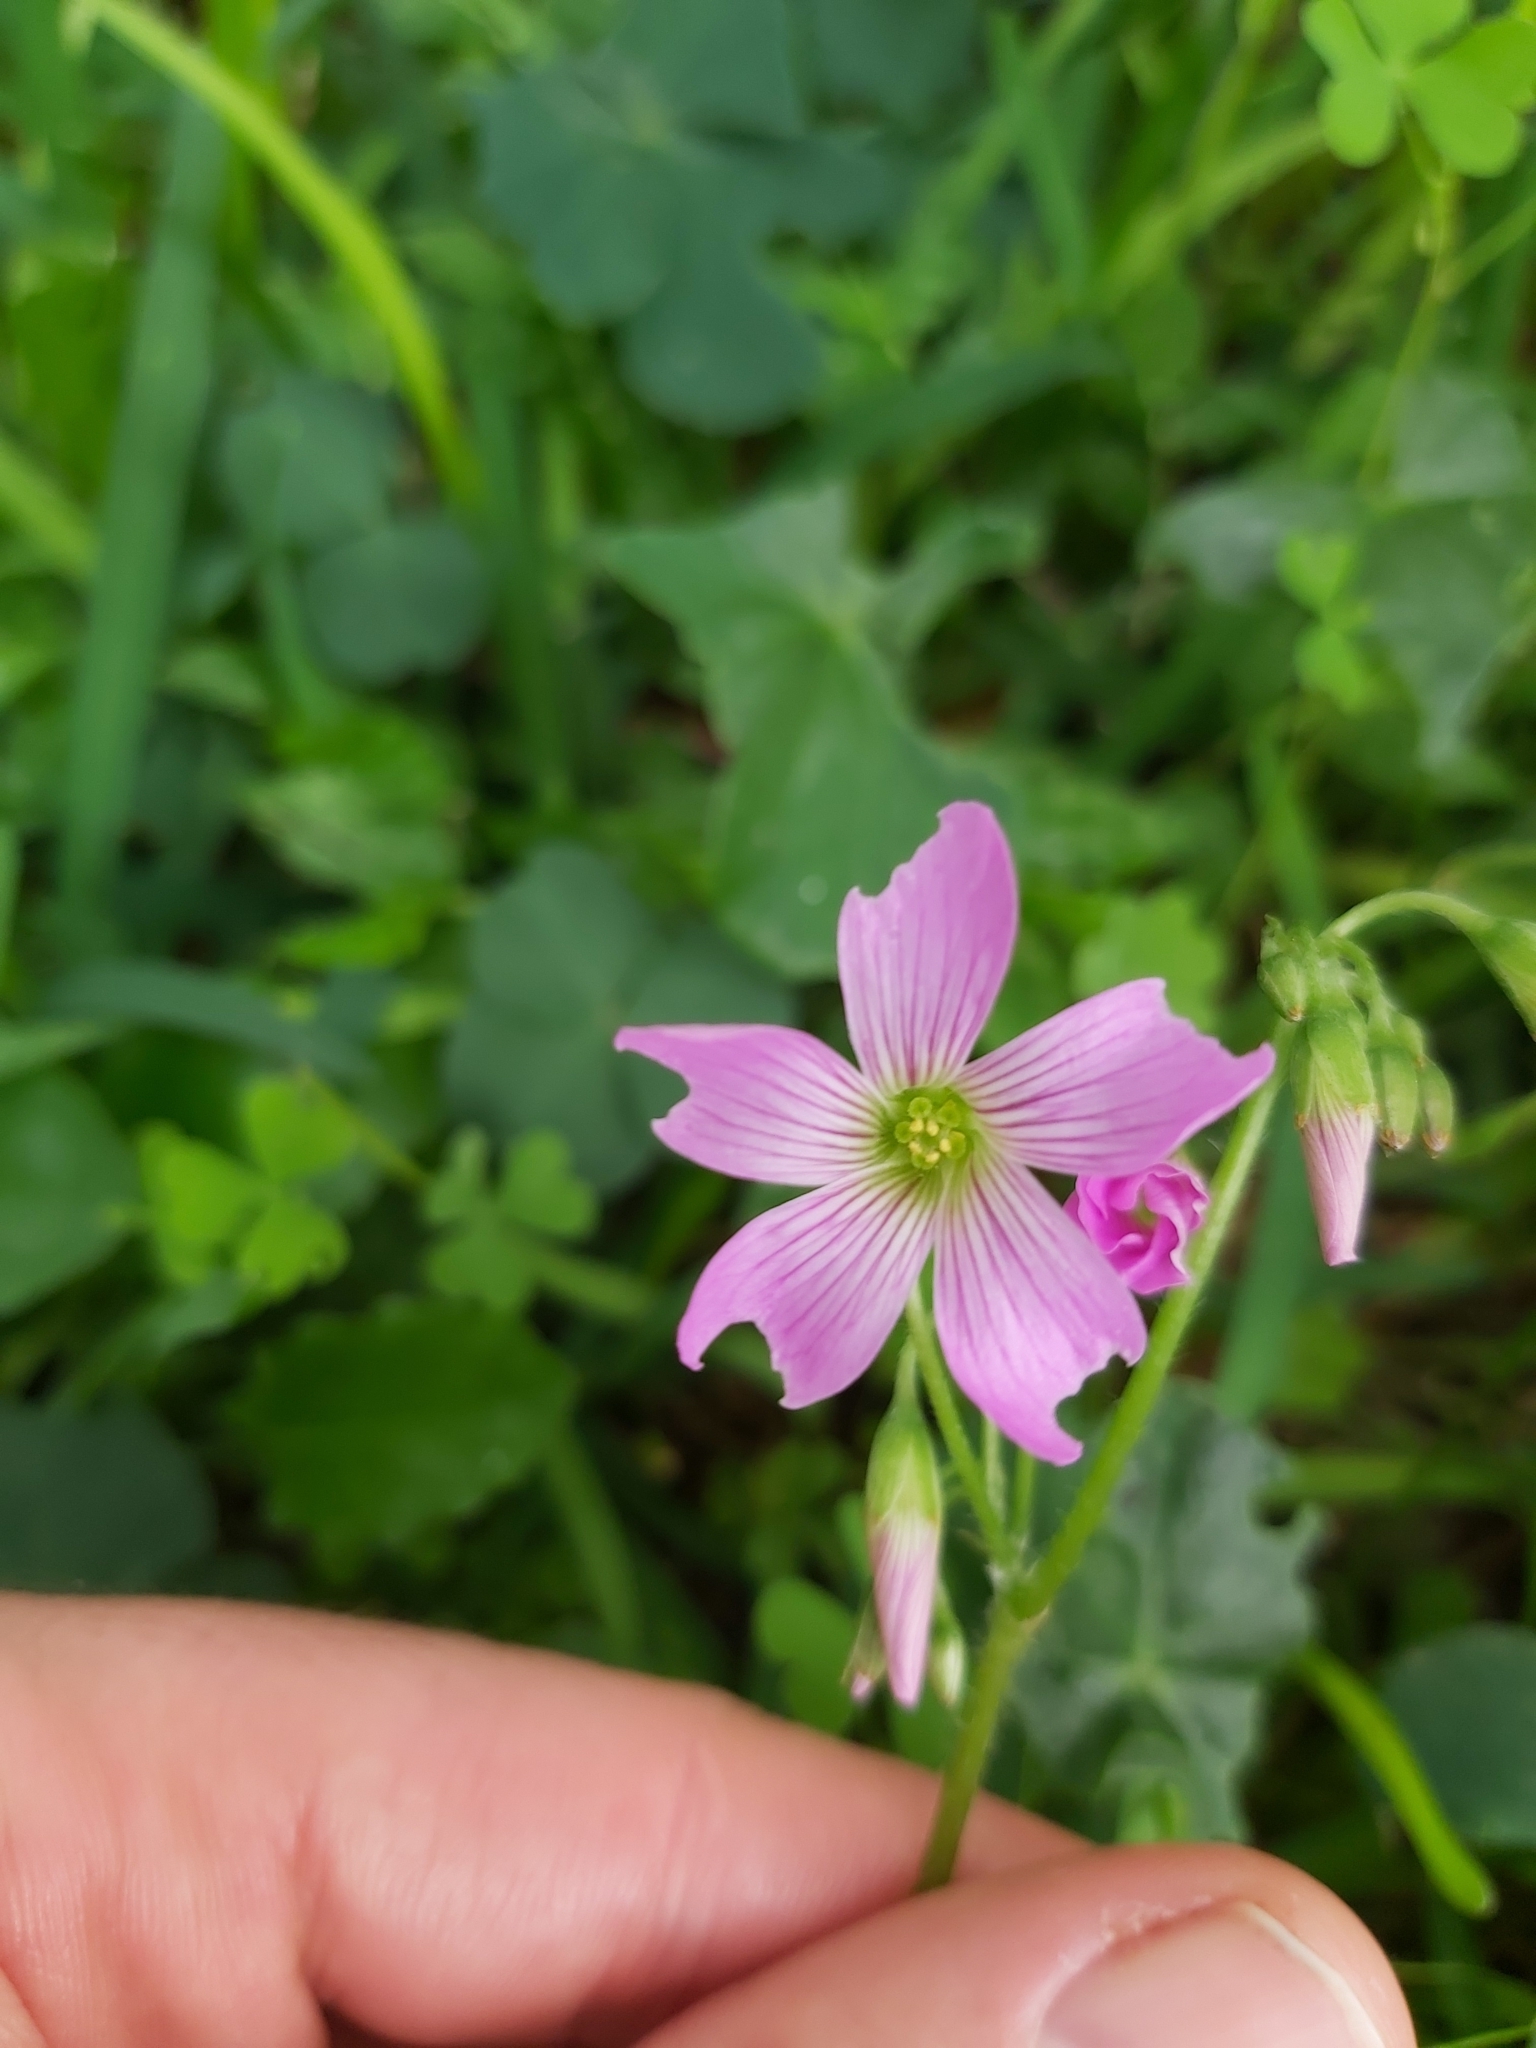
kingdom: Plantae
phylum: Tracheophyta
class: Magnoliopsida
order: Oxalidales
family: Oxalidaceae
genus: Oxalis
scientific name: Oxalis debilis
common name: Large-flowered pink-sorrel
